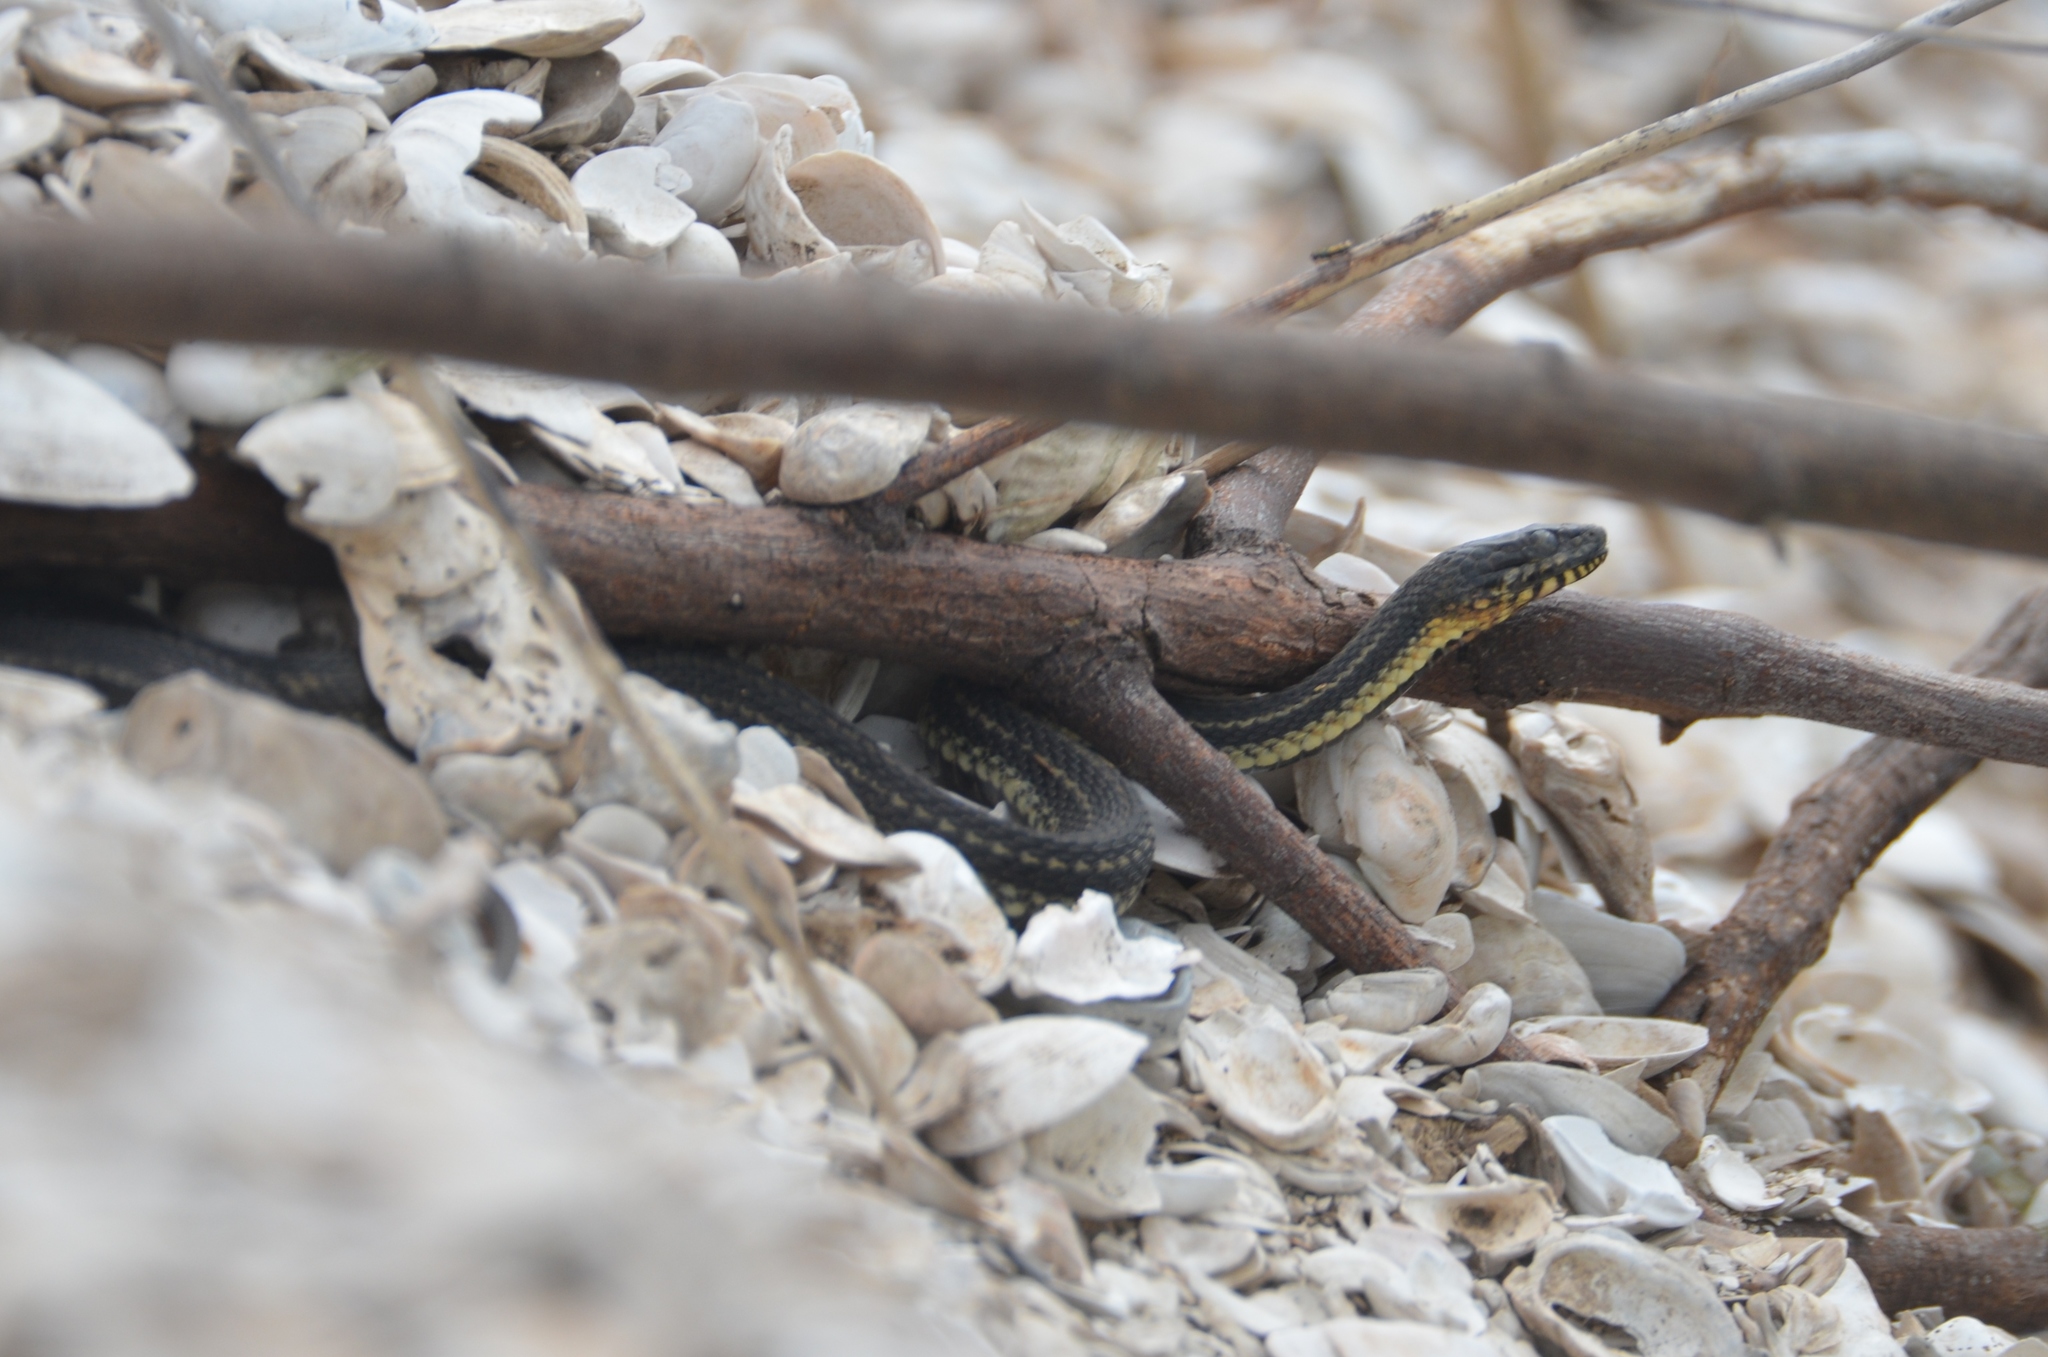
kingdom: Animalia
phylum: Chordata
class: Squamata
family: Colubridae
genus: Nerodia
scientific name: Nerodia clarkii
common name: Atlantic saltmarsh snake
